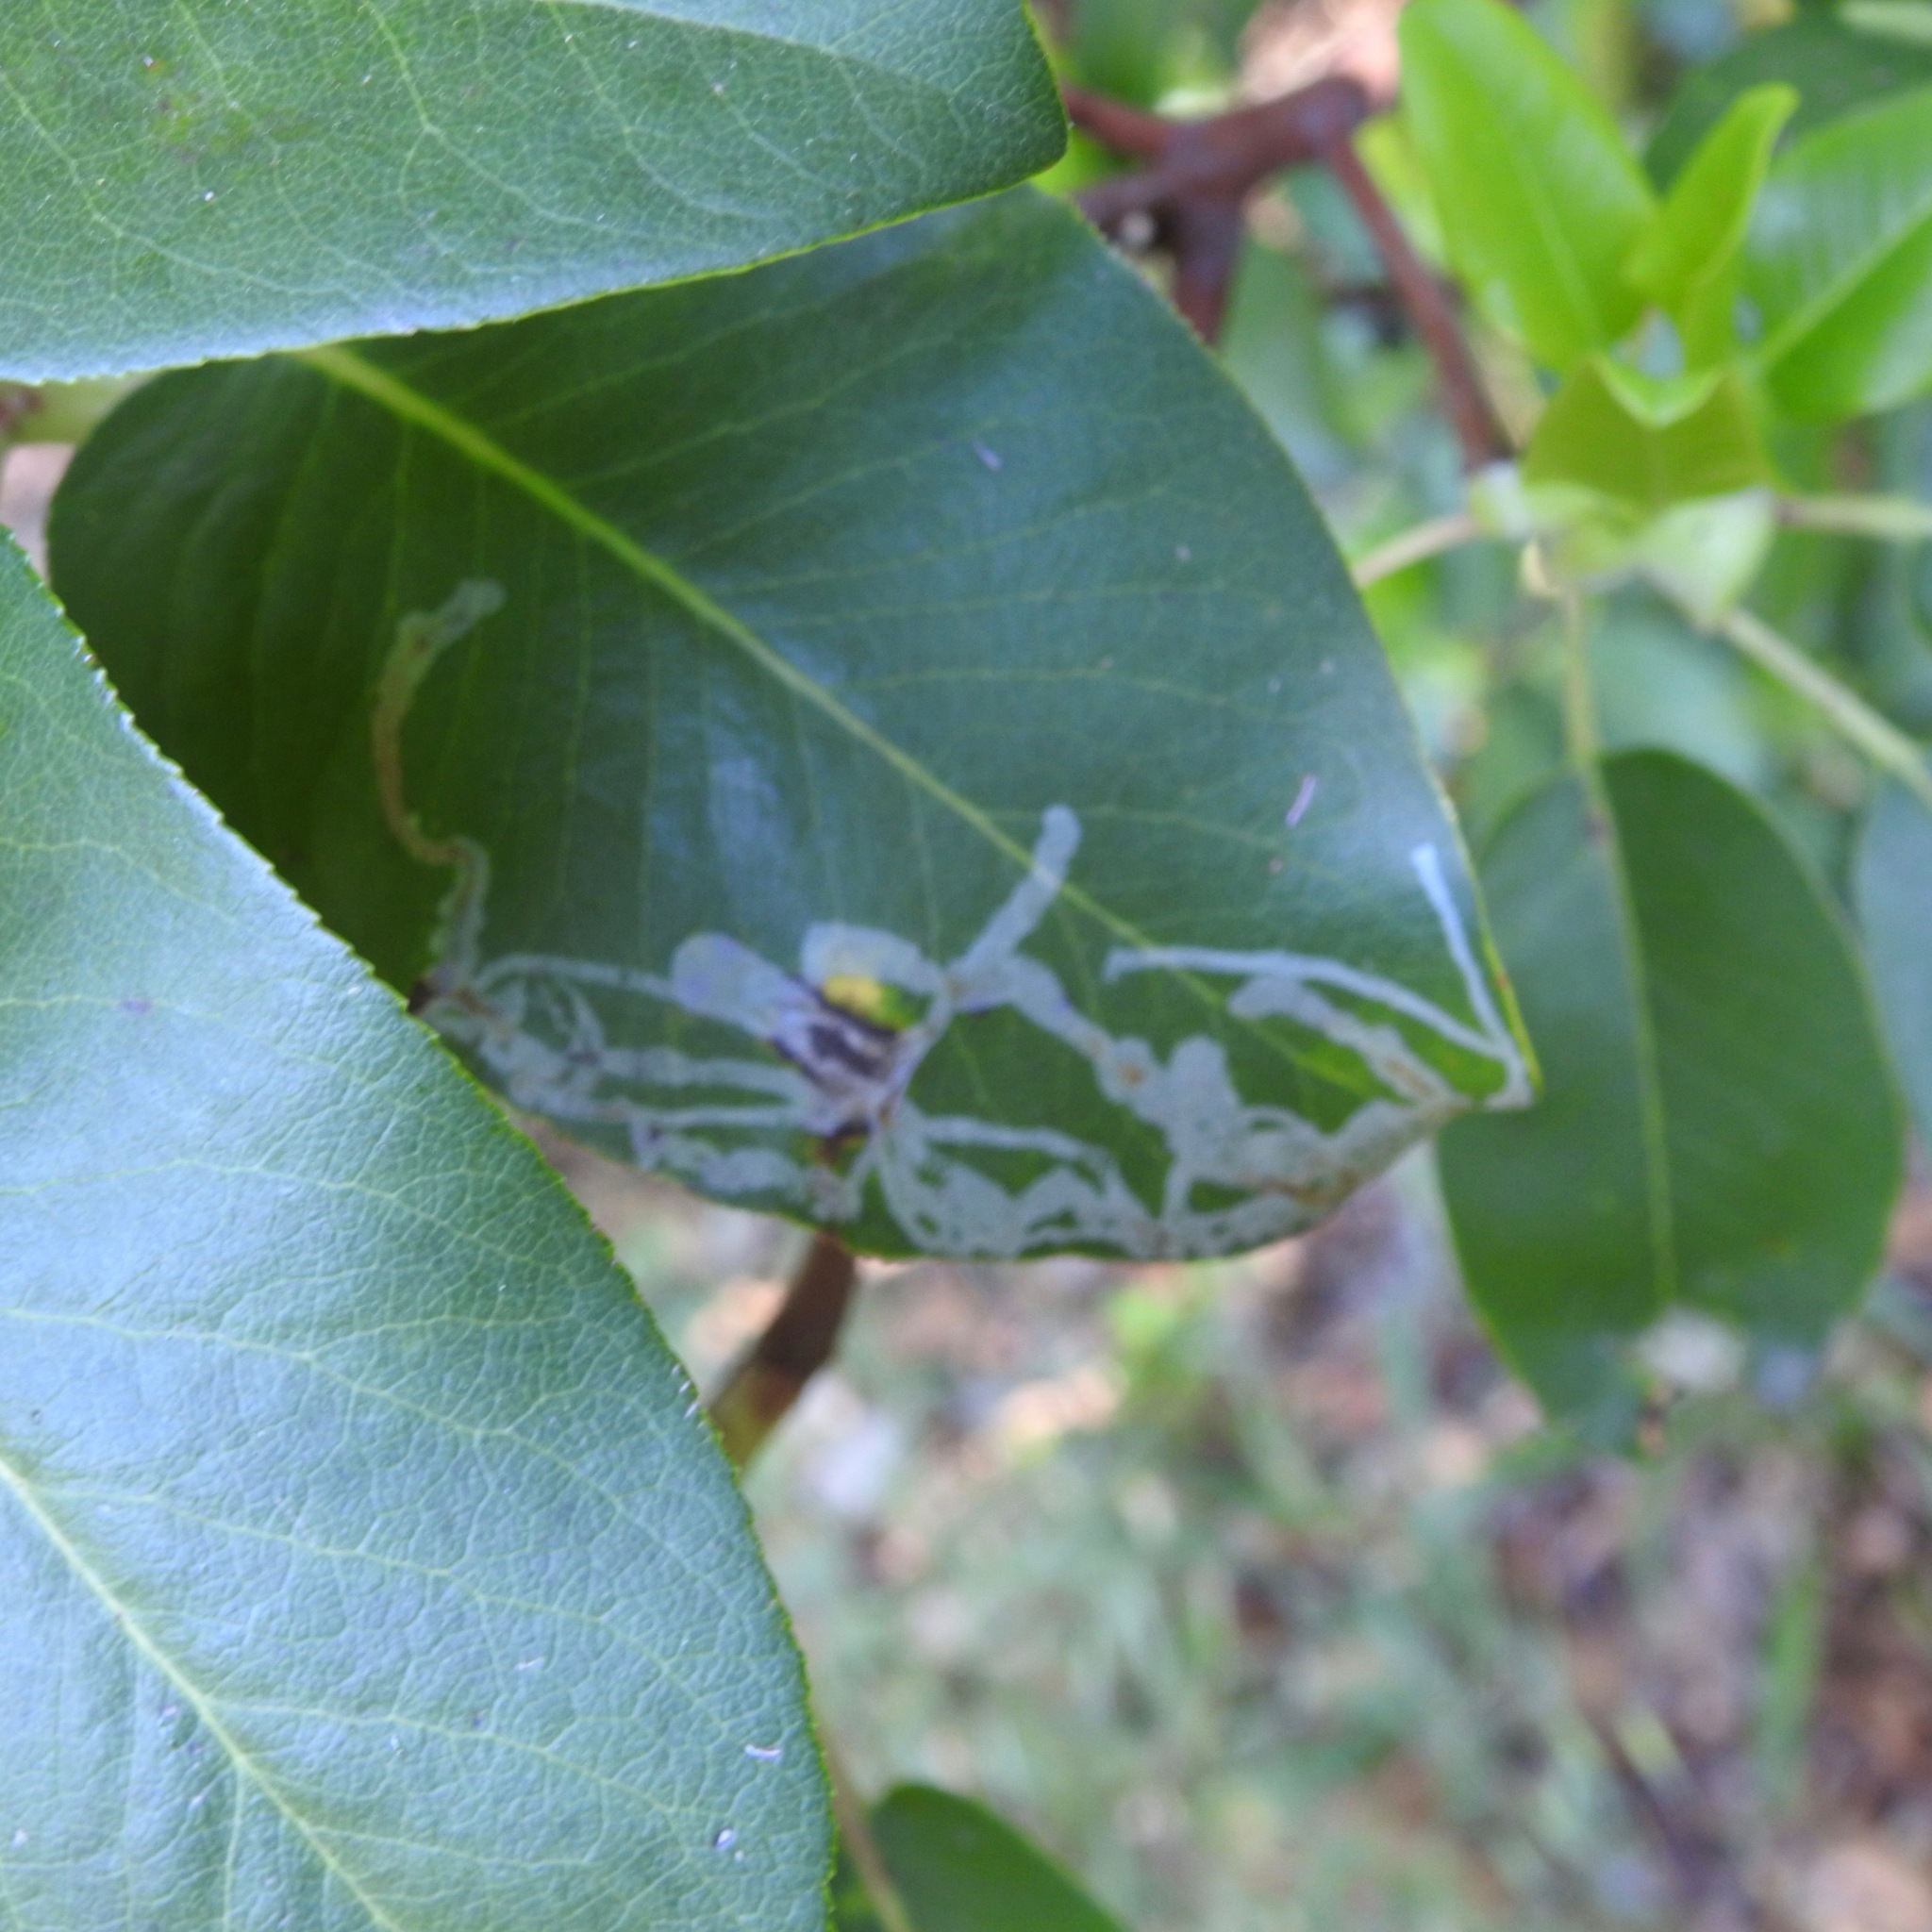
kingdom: Animalia
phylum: Arthropoda
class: Insecta
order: Lepidoptera
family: Gracillariidae
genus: Marmara
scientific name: Marmara arbutiella
